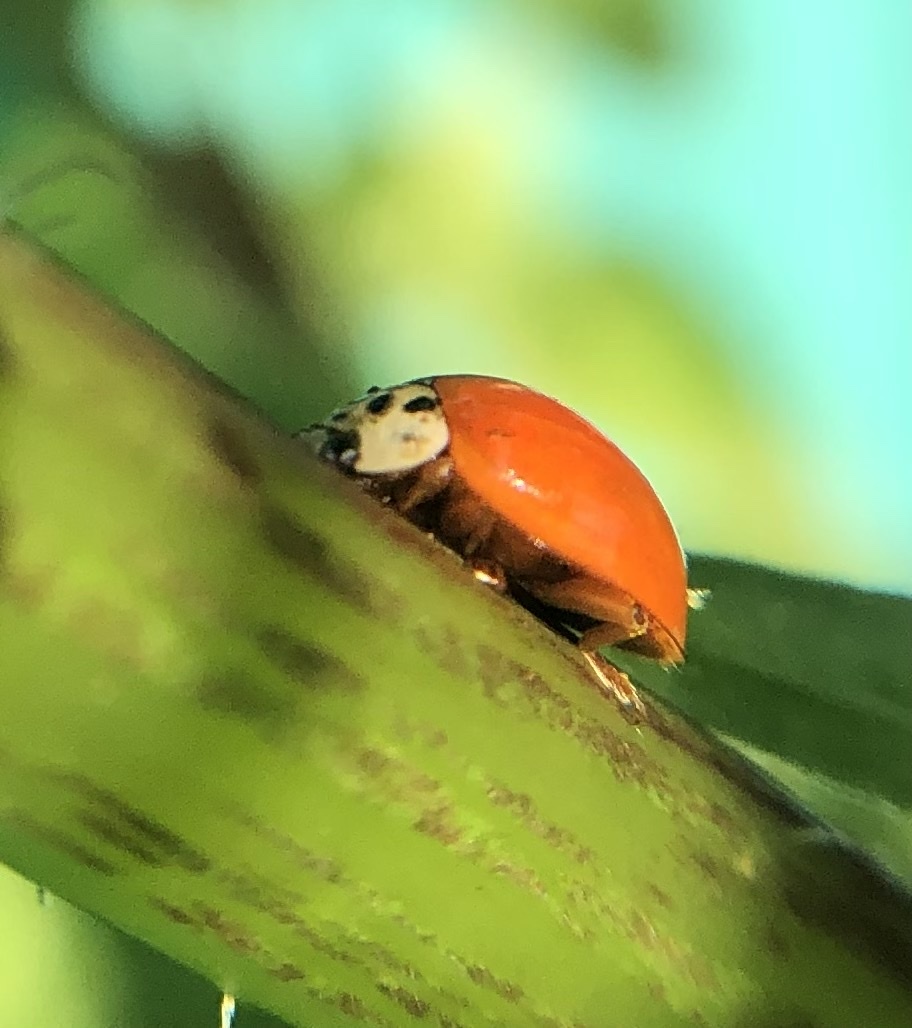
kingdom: Animalia
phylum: Arthropoda
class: Insecta
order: Coleoptera
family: Coccinellidae
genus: Harmonia
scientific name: Harmonia axyridis
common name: Harlequin ladybird
